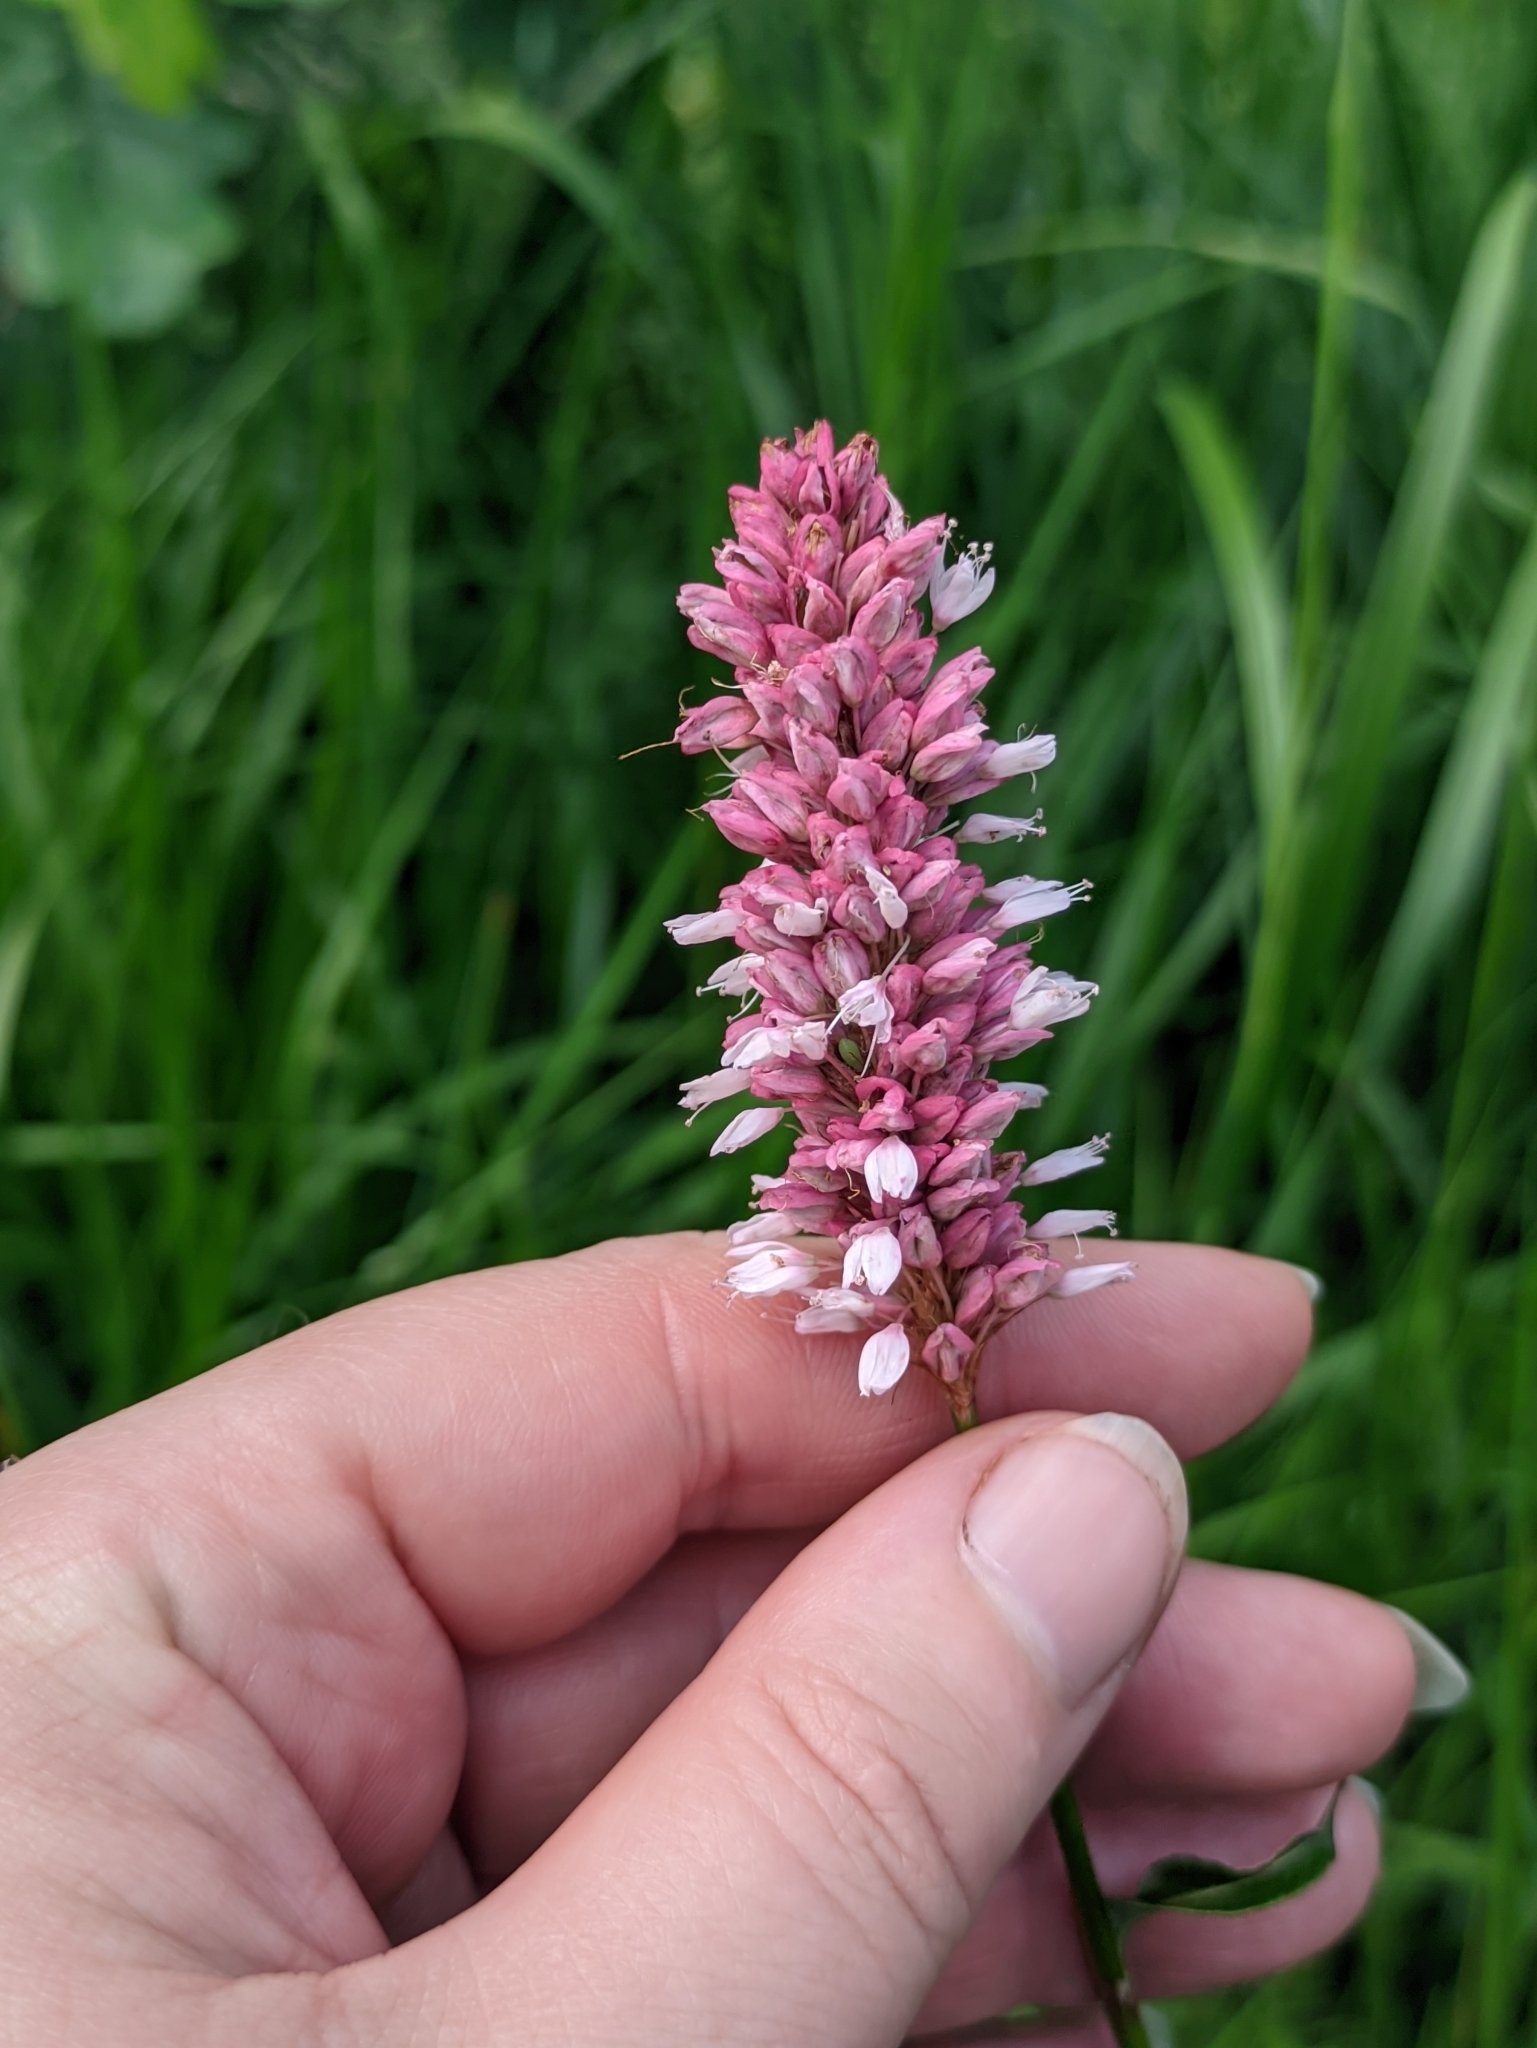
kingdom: Plantae
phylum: Tracheophyta
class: Magnoliopsida
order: Caryophyllales
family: Polygonaceae
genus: Bistorta
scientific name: Bistorta officinalis
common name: Common bistort
